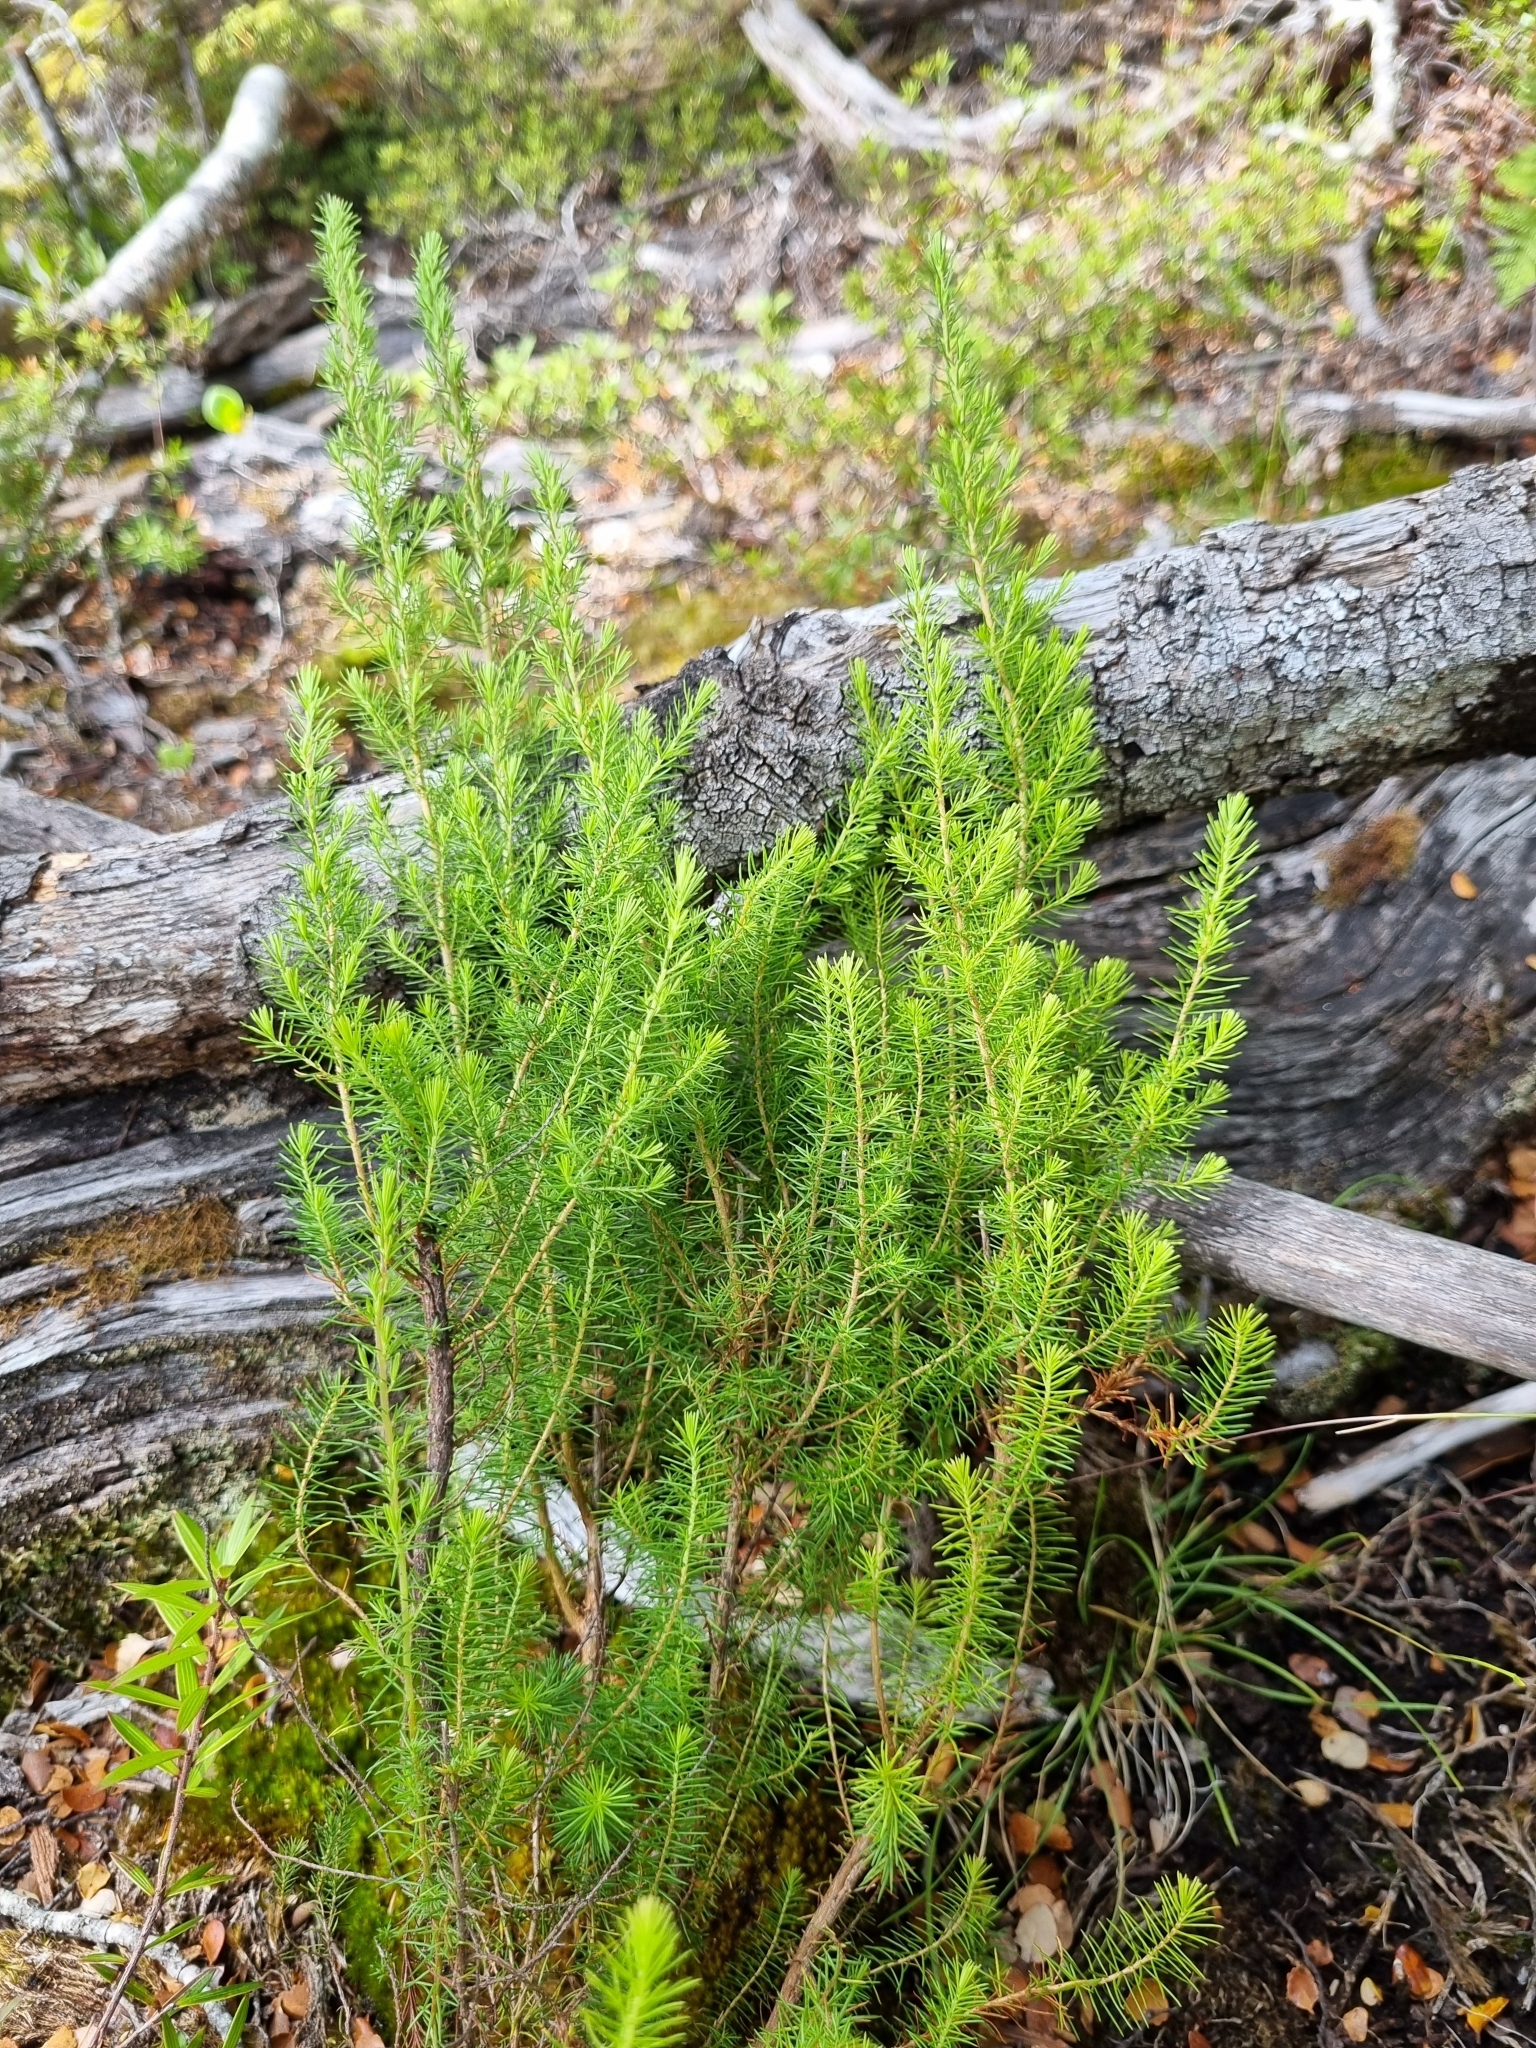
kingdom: Plantae
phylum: Tracheophyta
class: Magnoliopsida
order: Ericales
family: Ericaceae
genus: Erica
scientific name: Erica lusitanica
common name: Spanish heath
